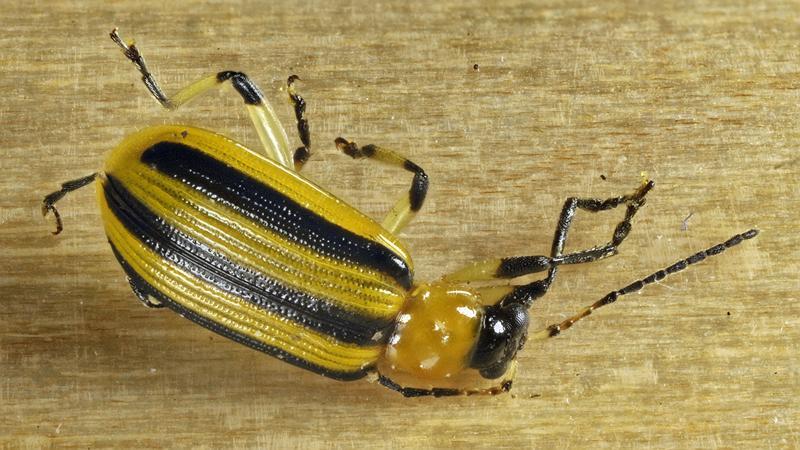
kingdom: Animalia
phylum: Arthropoda
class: Insecta
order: Coleoptera
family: Chrysomelidae
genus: Acalymma
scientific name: Acalymma vittatum
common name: Striped cucumber beetle
